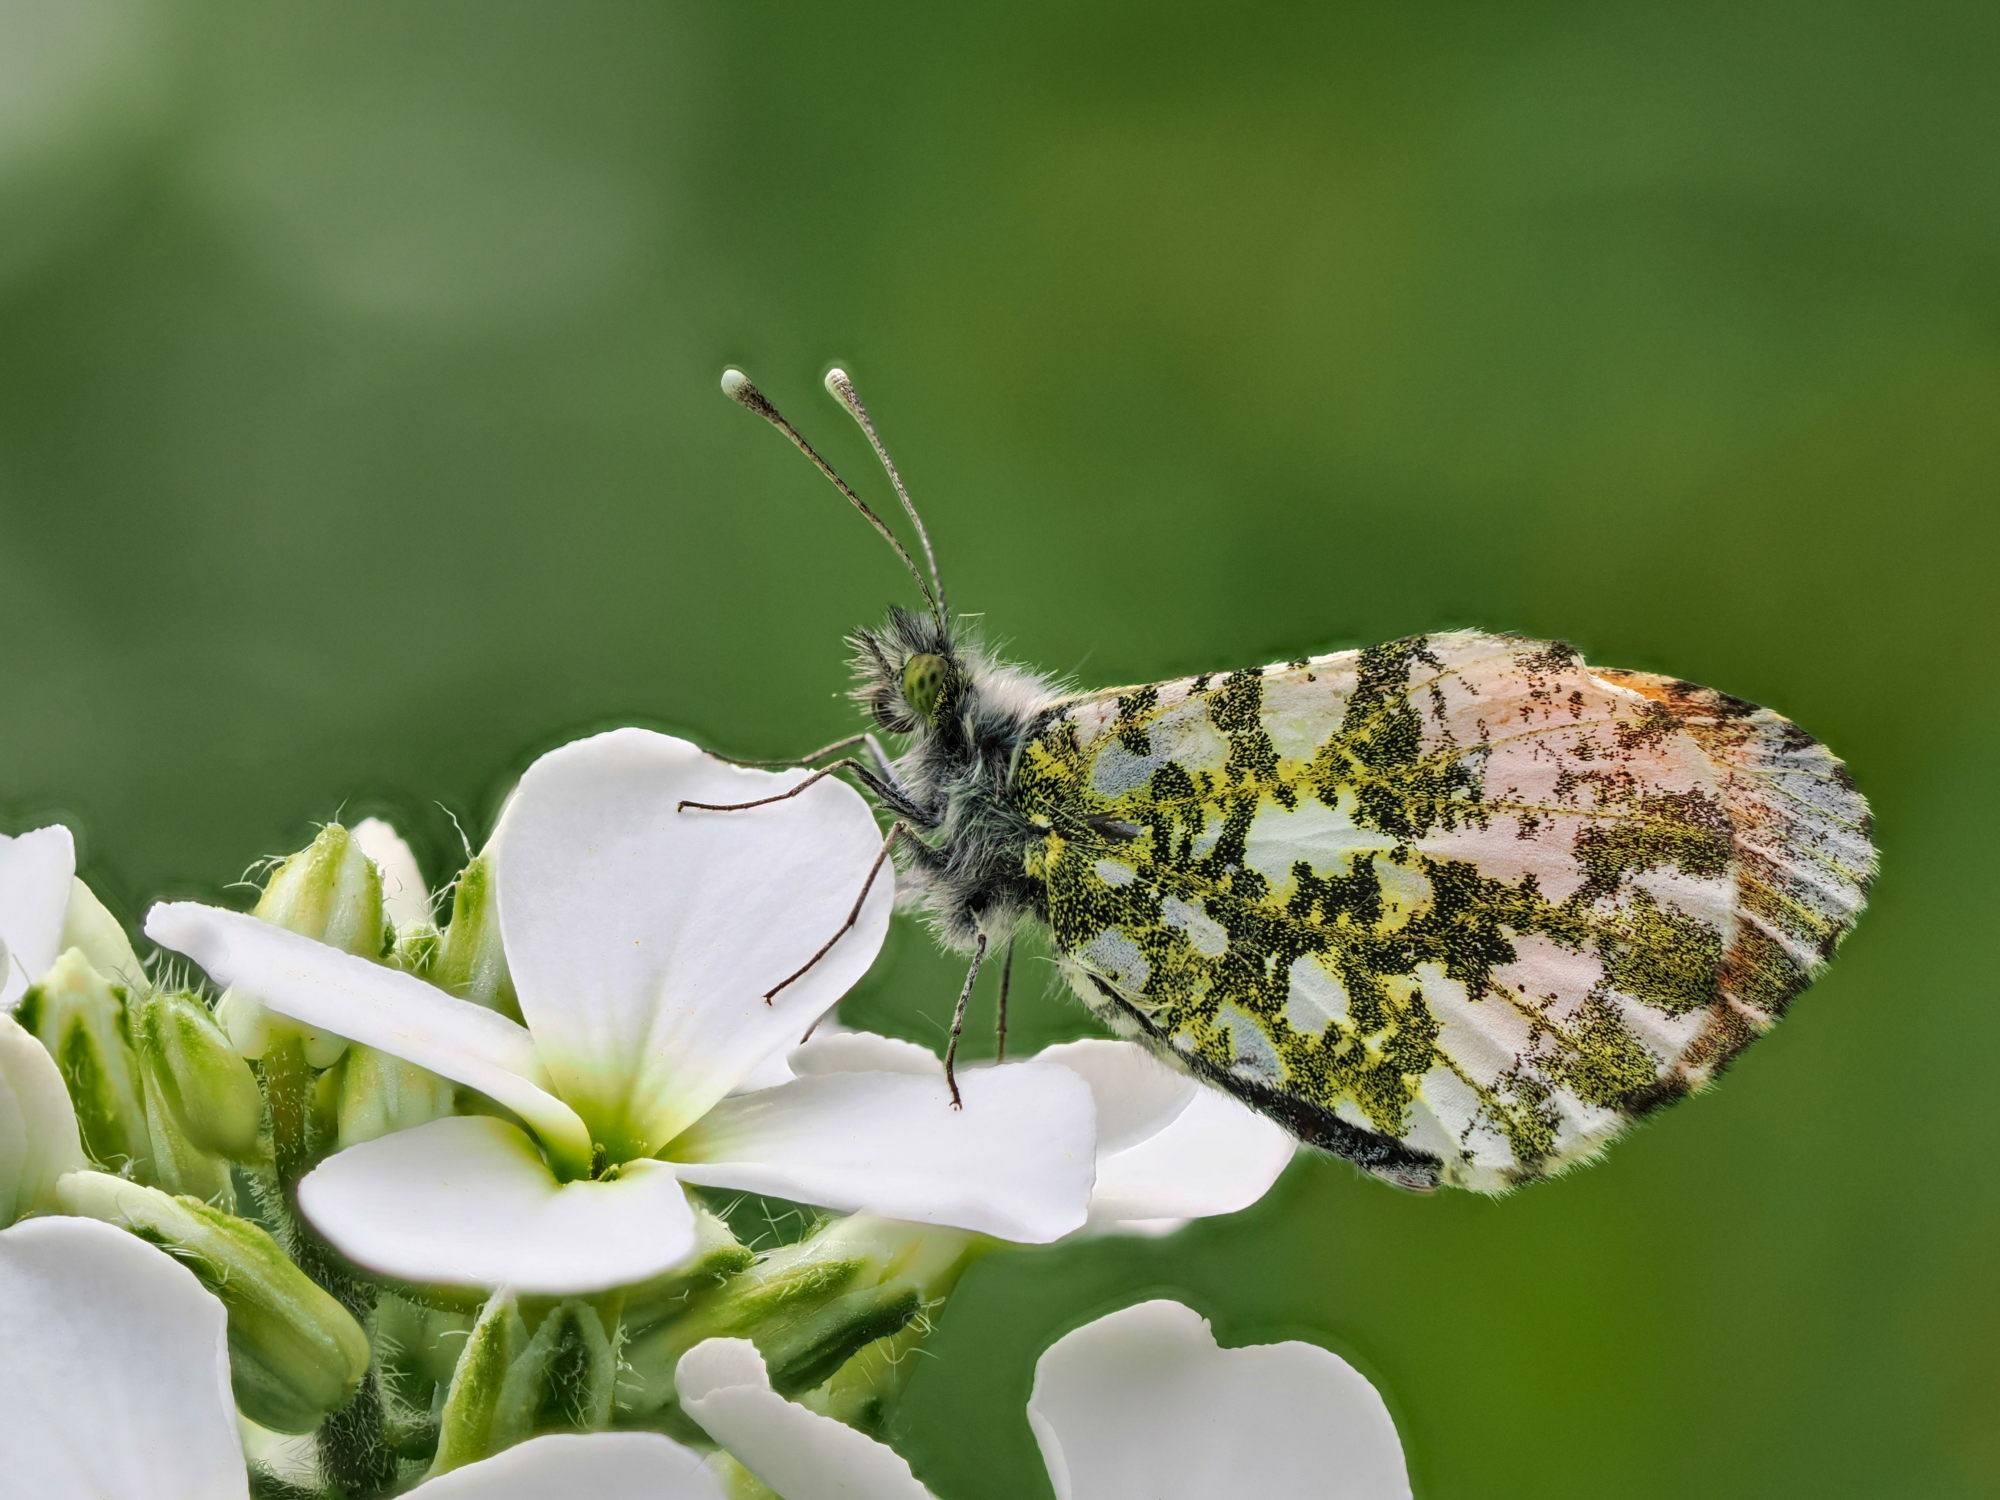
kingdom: Animalia
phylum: Arthropoda
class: Insecta
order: Lepidoptera
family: Pieridae
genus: Anthocharis
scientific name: Anthocharis cardamines
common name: Orange-tip
